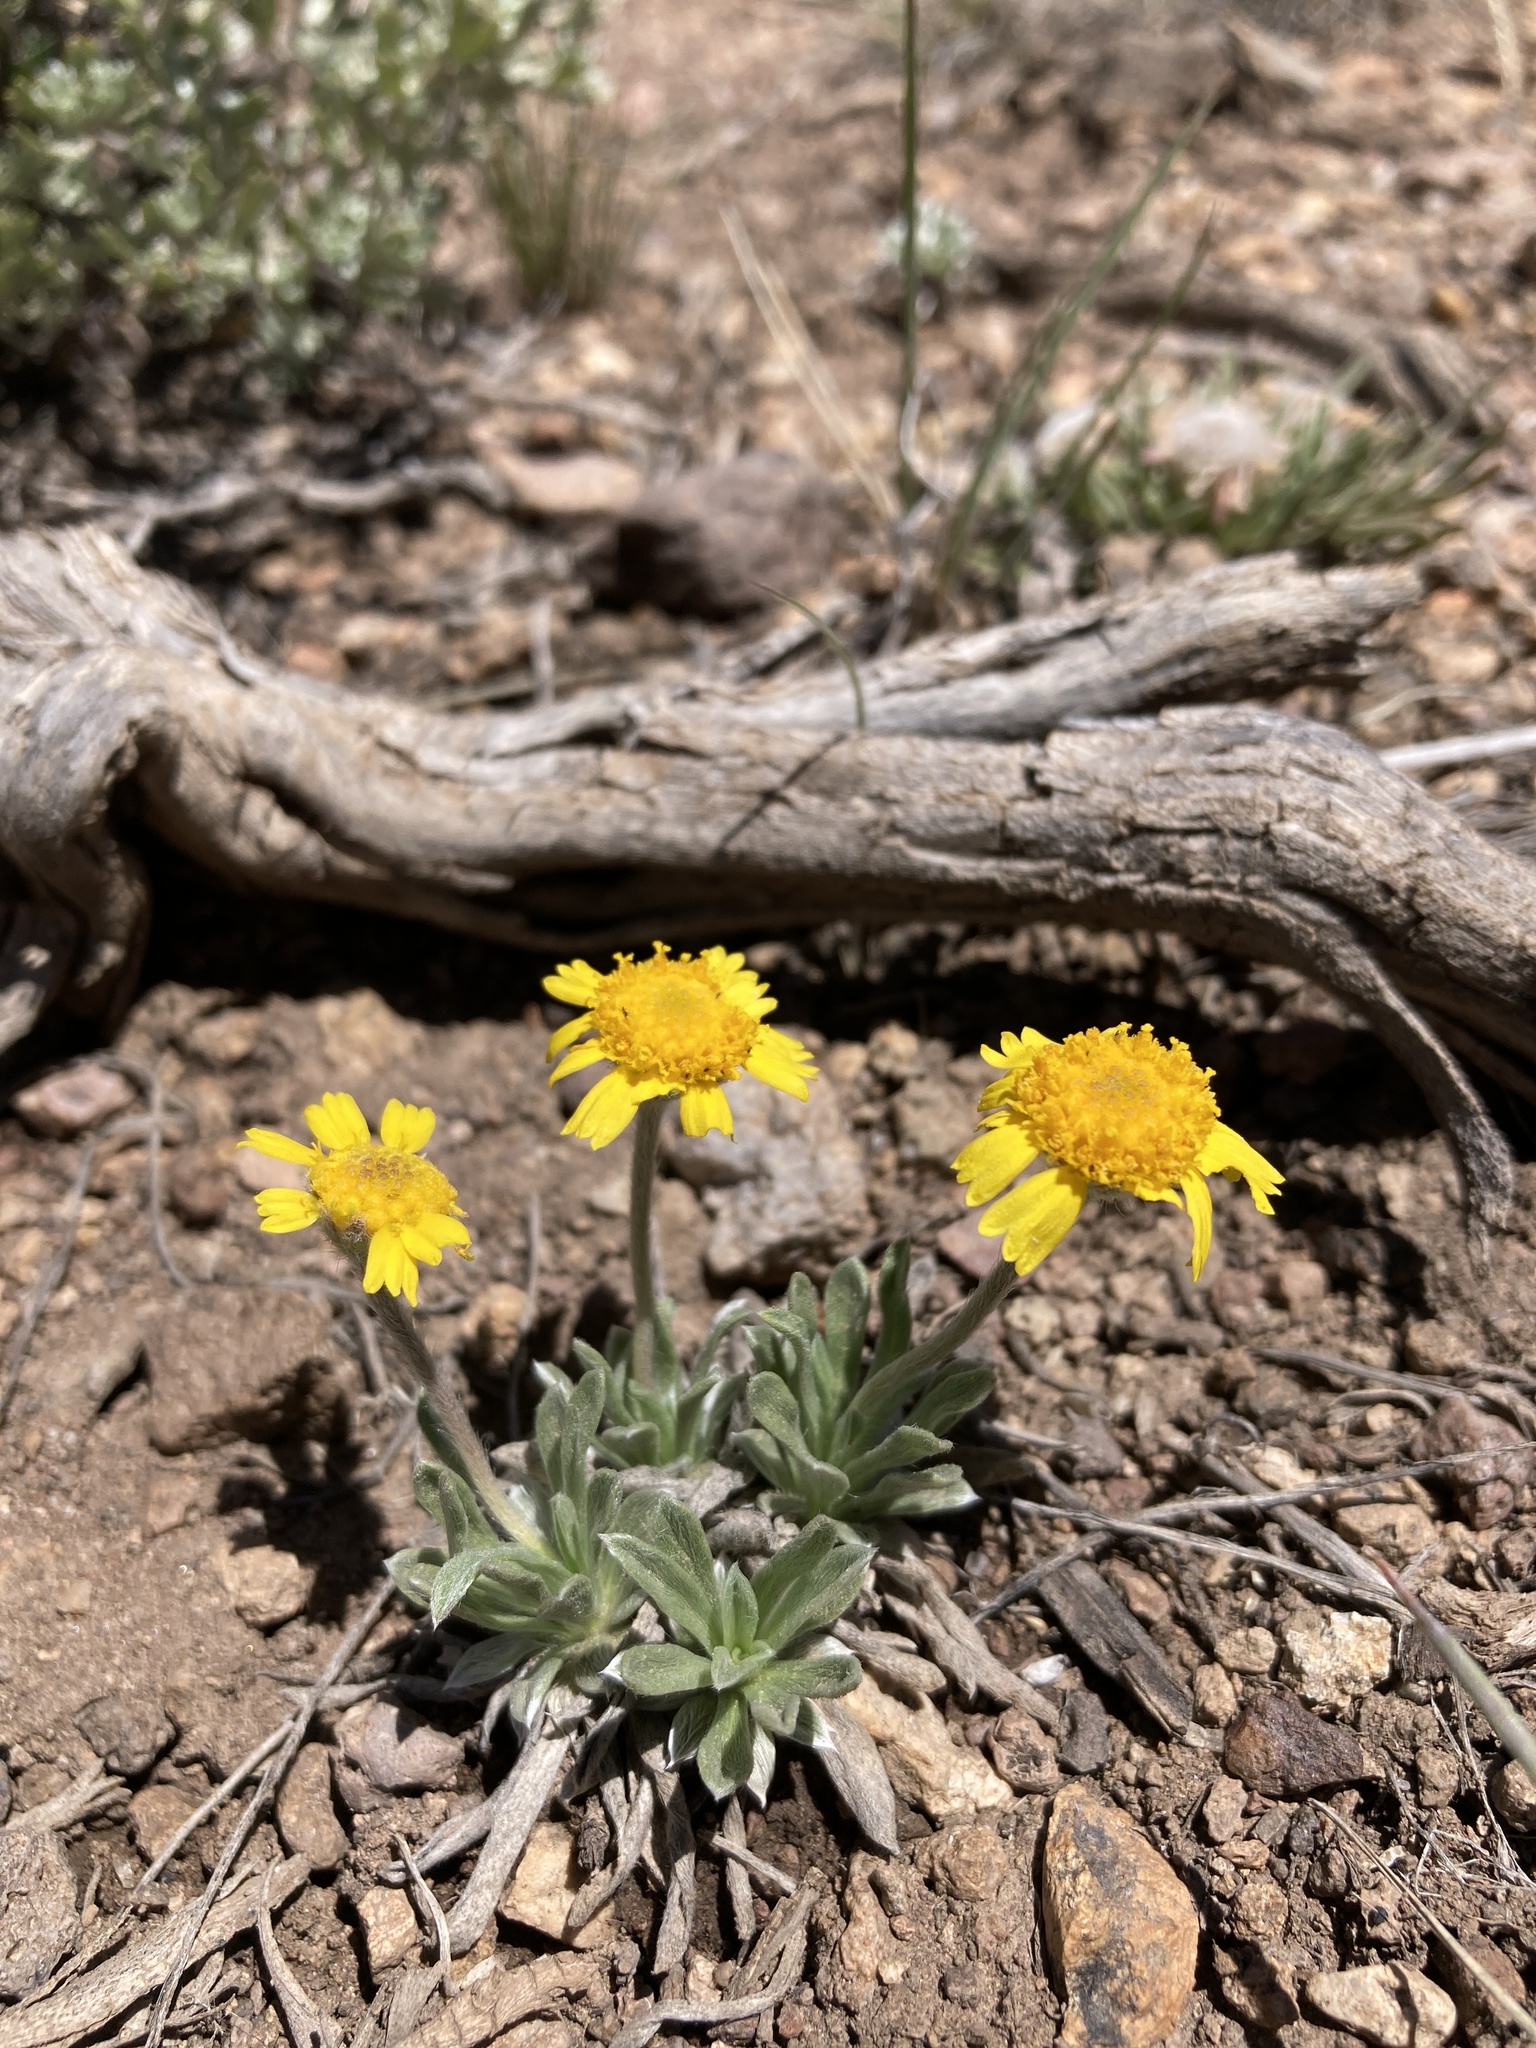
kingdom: Plantae
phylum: Tracheophyta
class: Magnoliopsida
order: Asterales
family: Asteraceae
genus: Tetraneuris
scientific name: Tetraneuris acaulis
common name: Butte marigold
